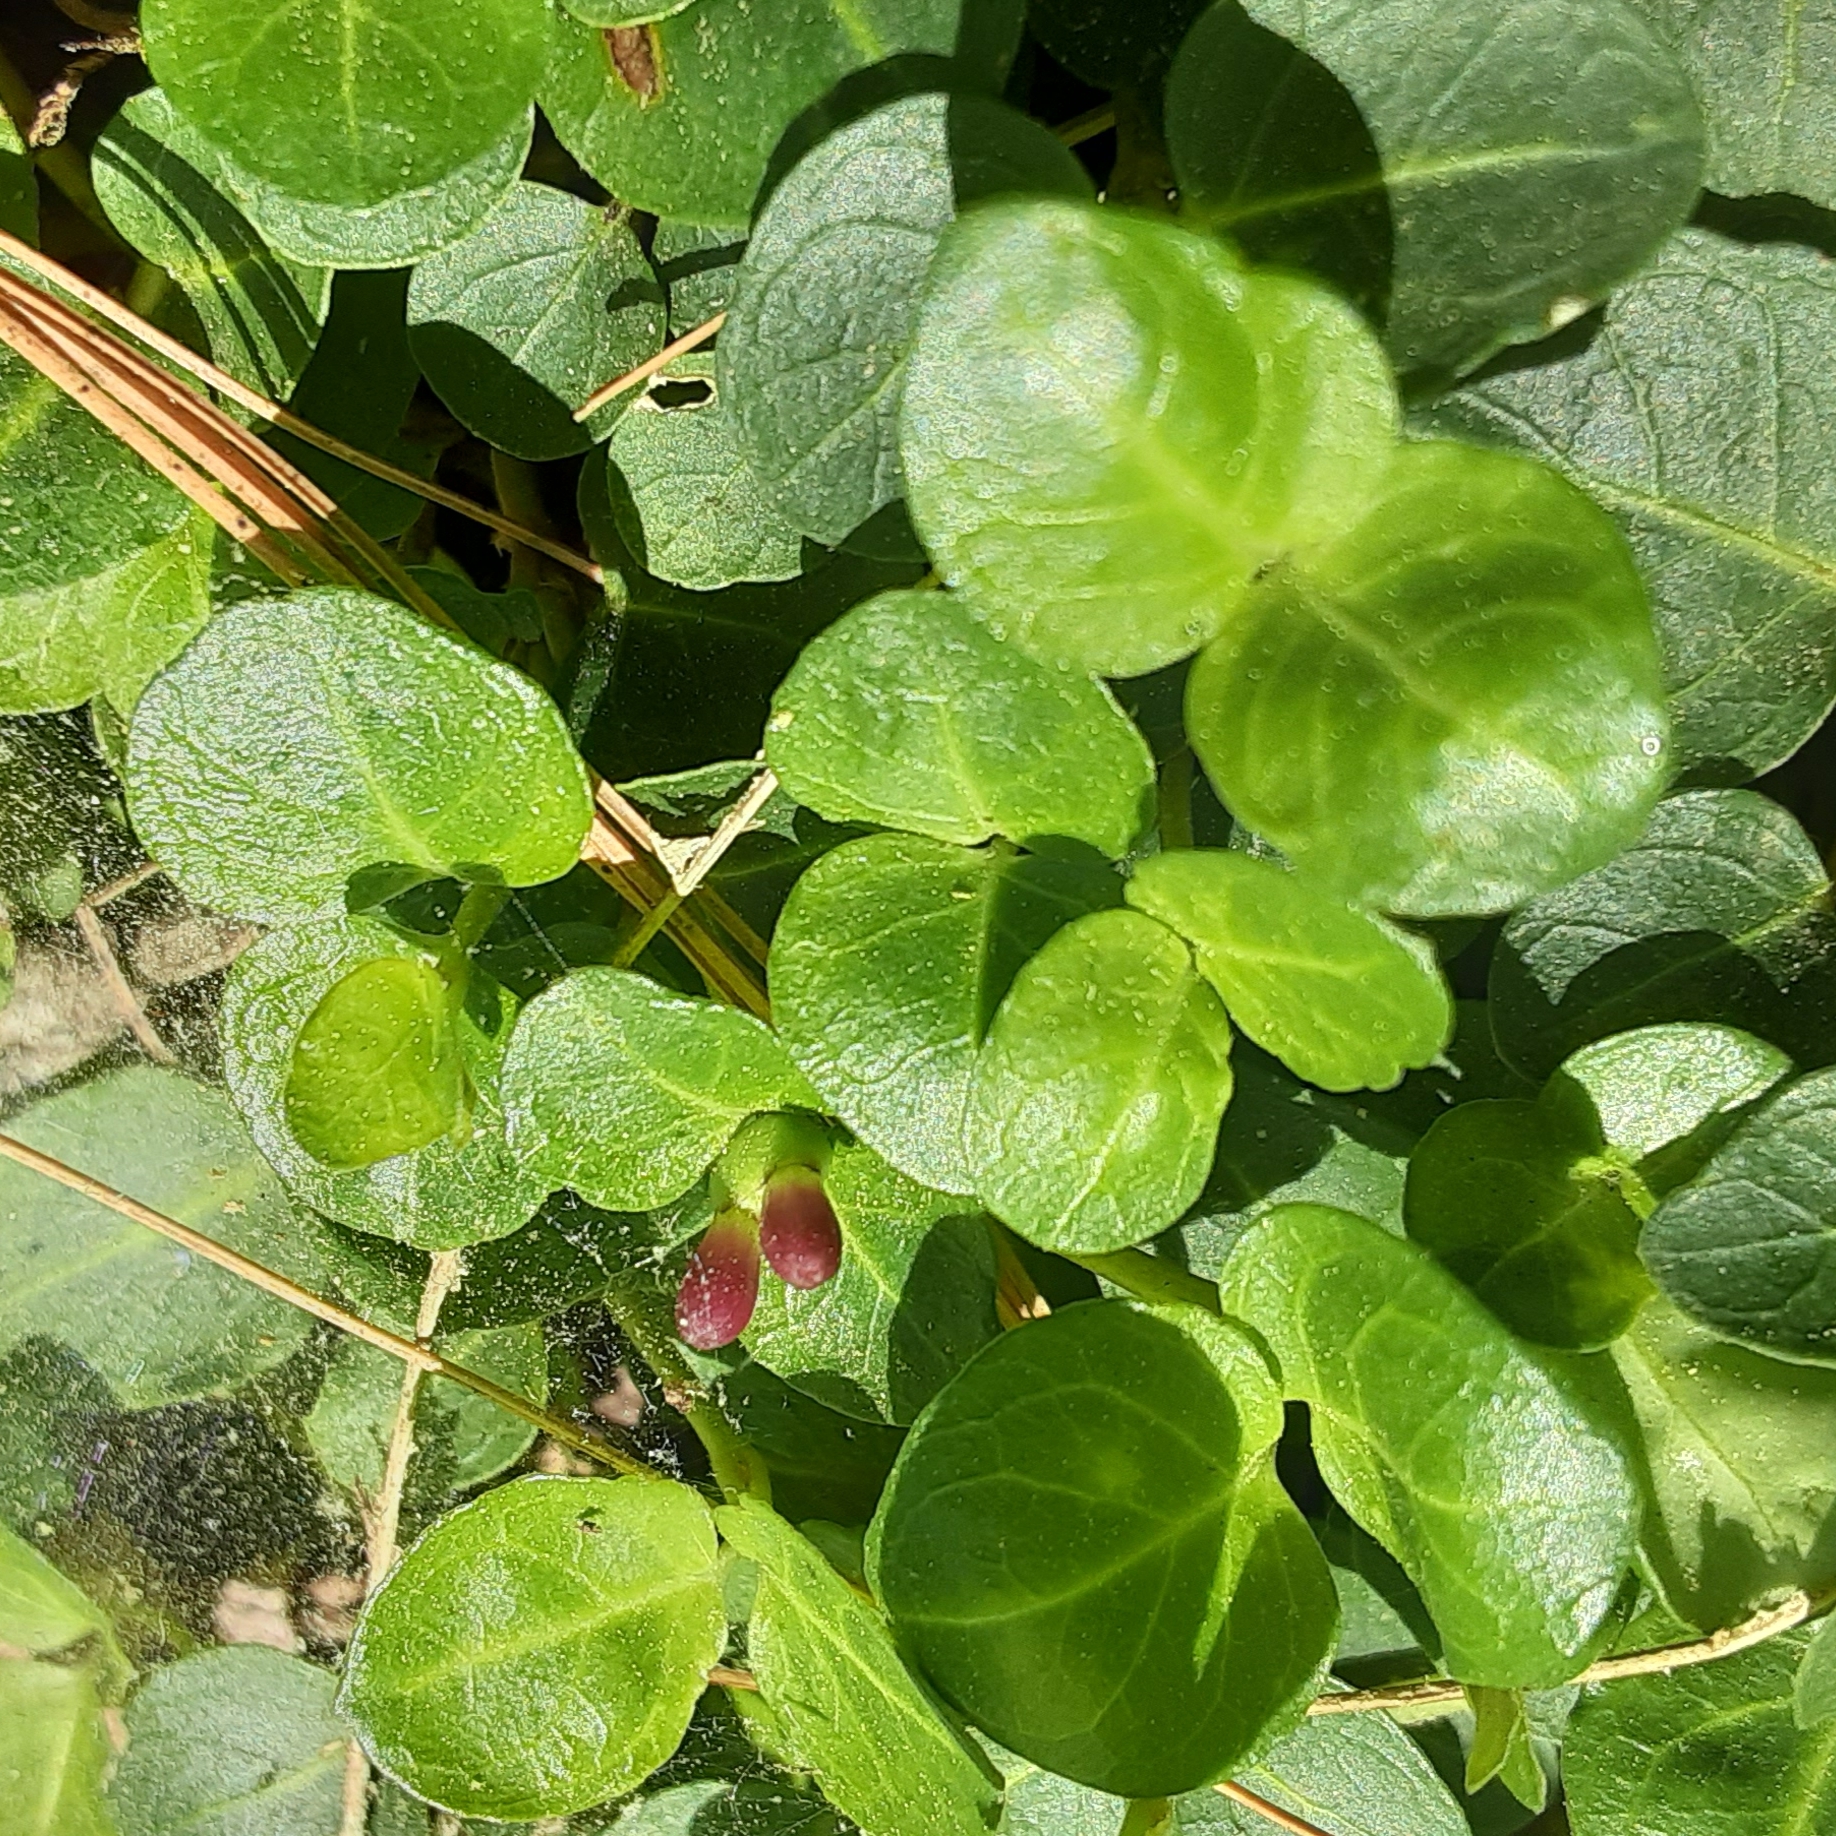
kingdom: Plantae
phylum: Tracheophyta
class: Magnoliopsida
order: Gentianales
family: Rubiaceae
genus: Mitchella
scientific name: Mitchella repens
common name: Partridge-berry
